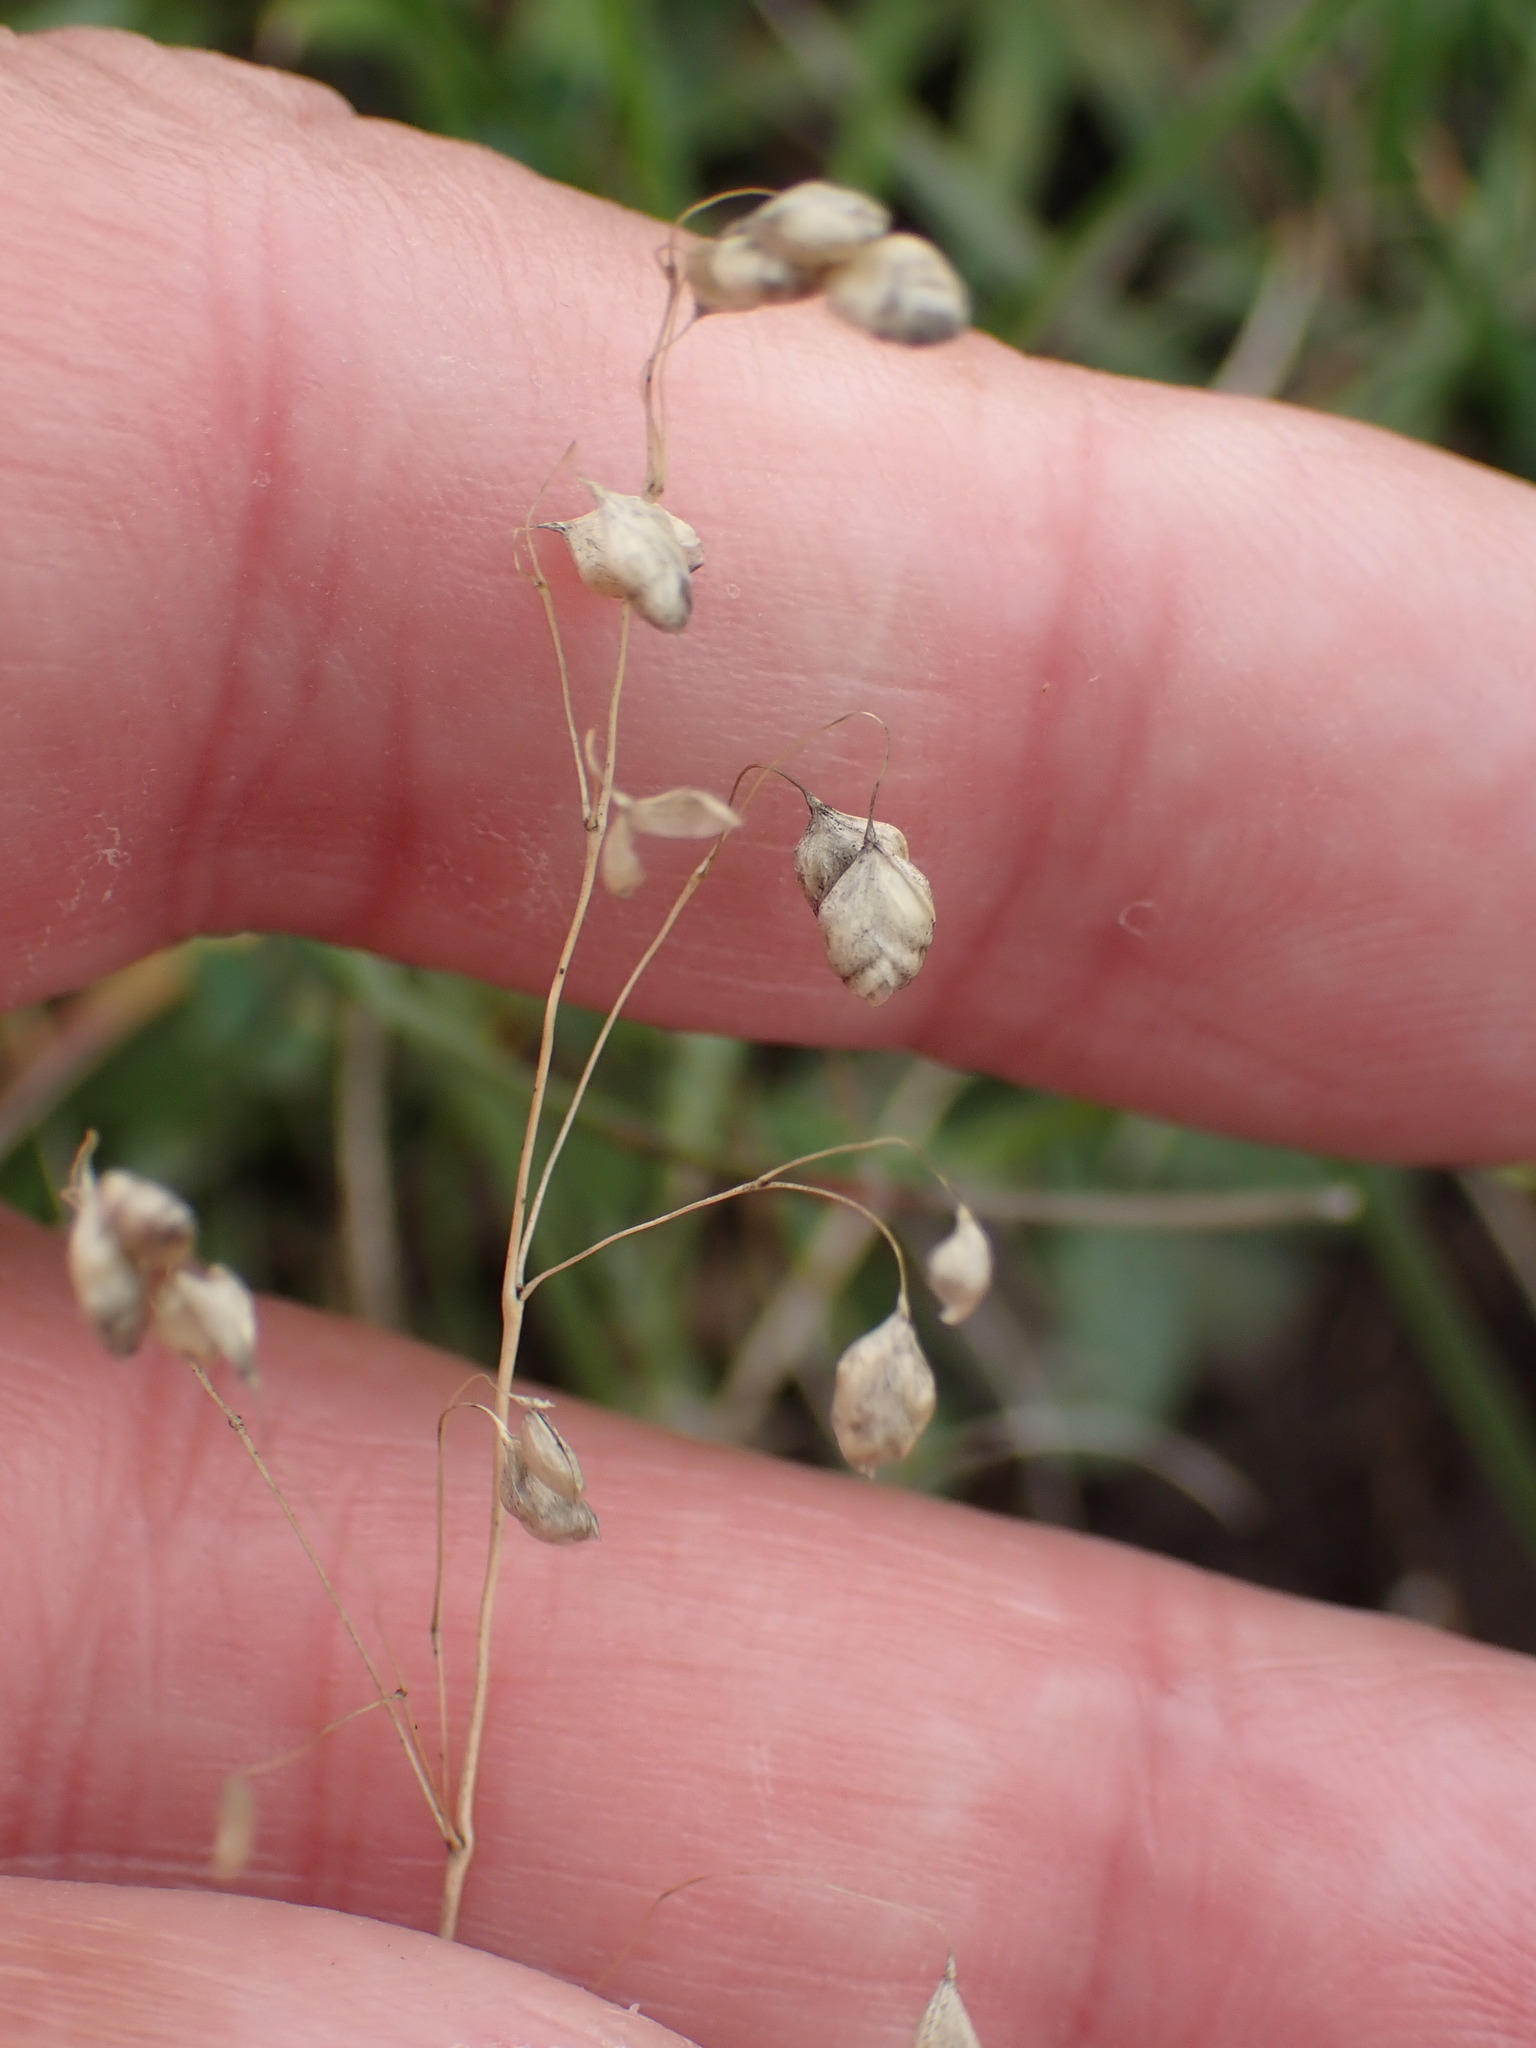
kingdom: Plantae
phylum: Tracheophyta
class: Liliopsida
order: Poales
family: Poaceae
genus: Briza
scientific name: Briza media
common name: Quaking grass
